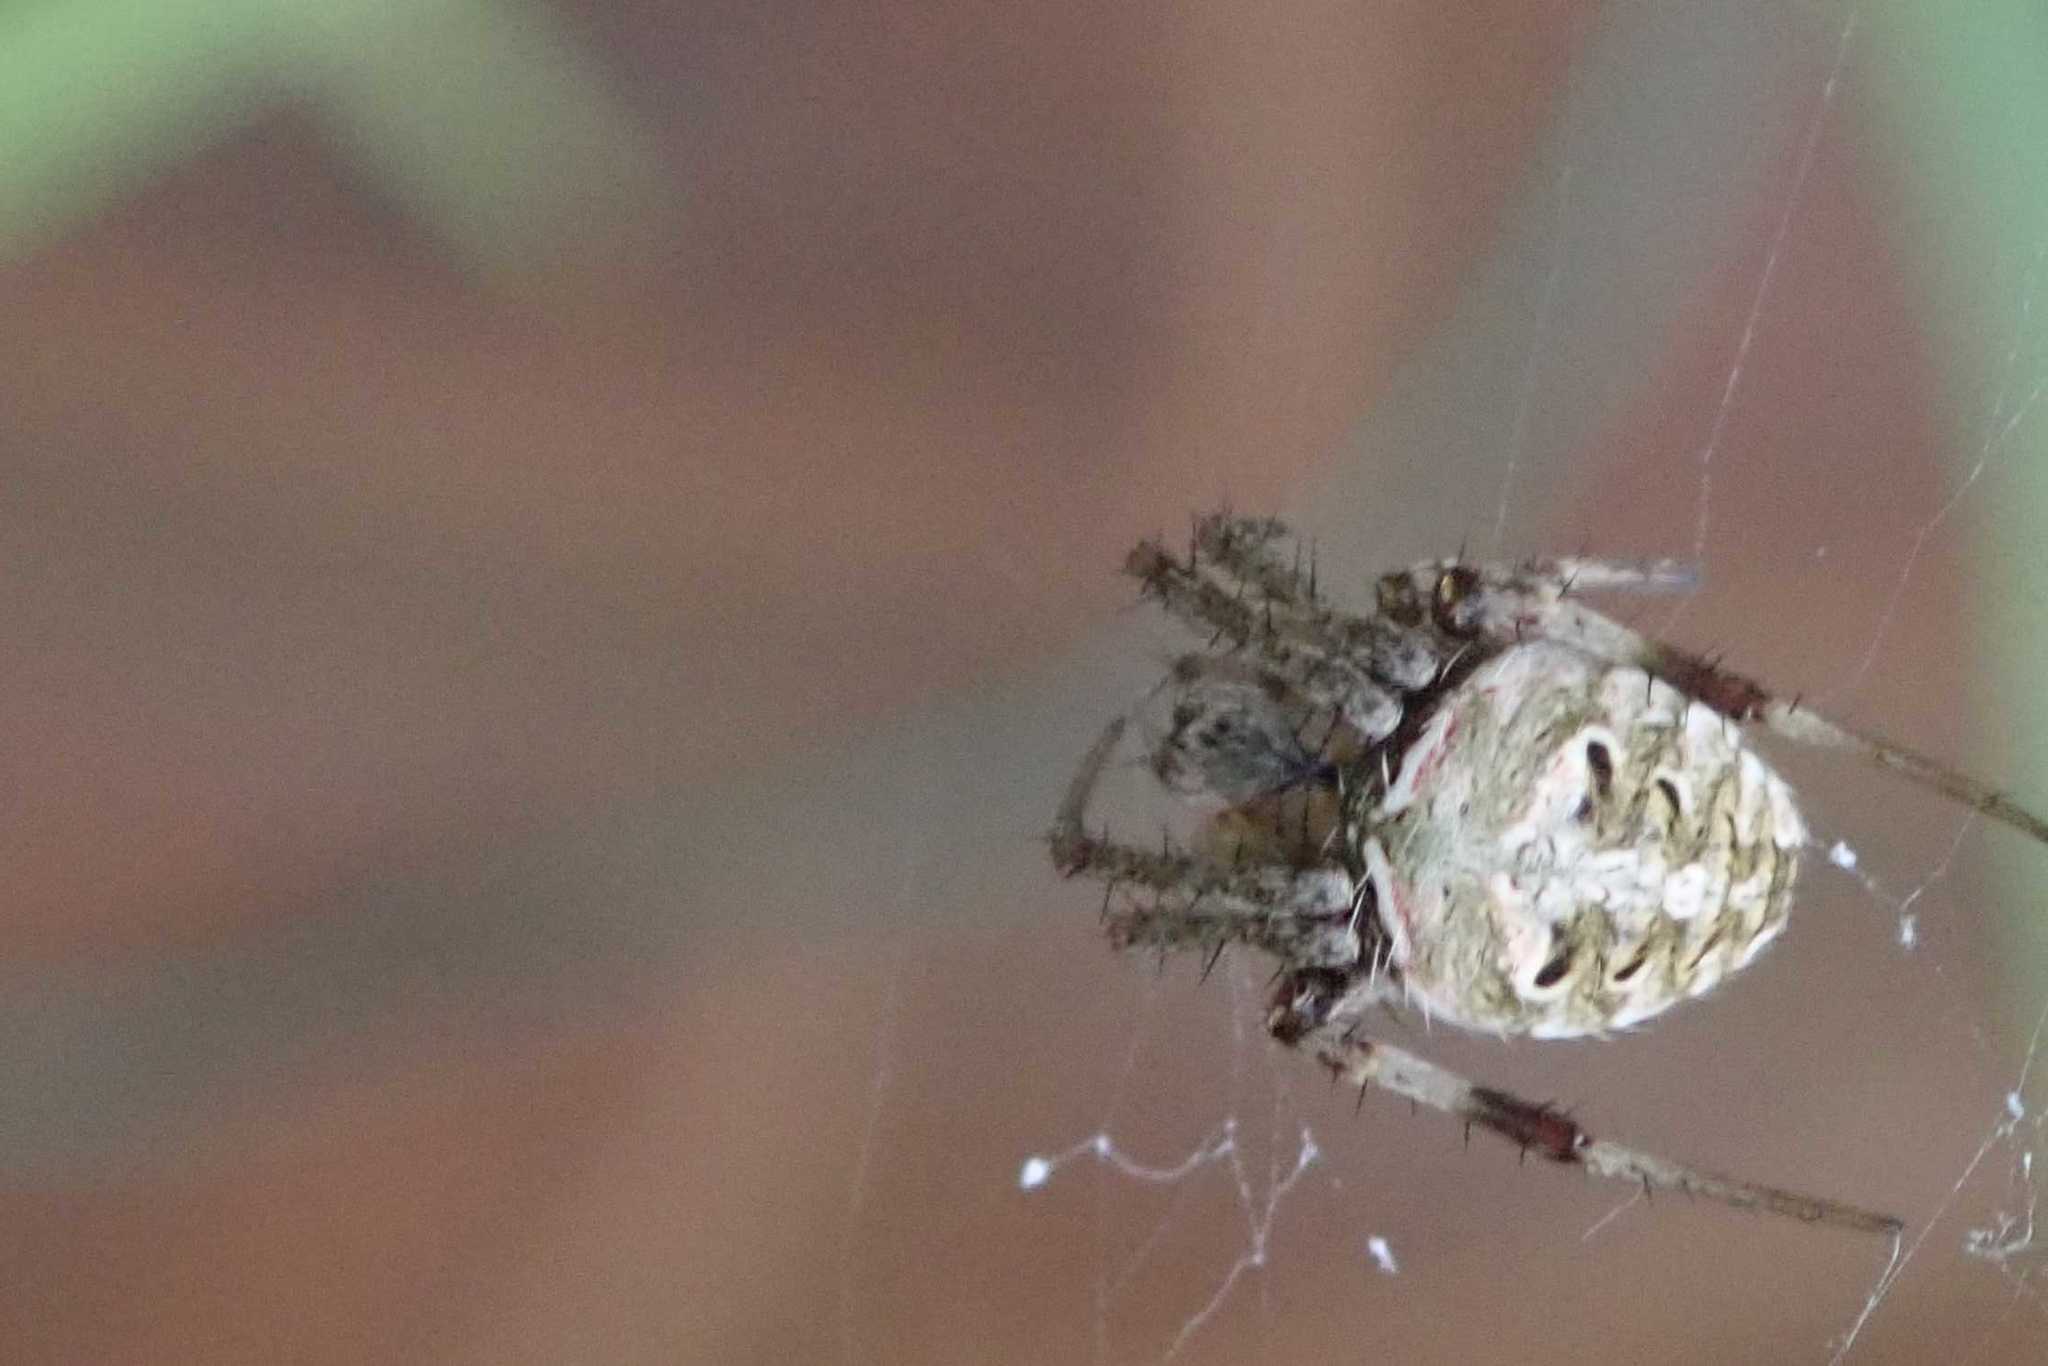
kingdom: Animalia
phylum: Arthropoda
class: Arachnida
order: Araneae
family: Araneidae
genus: Neoscona
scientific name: Neoscona blondeli
